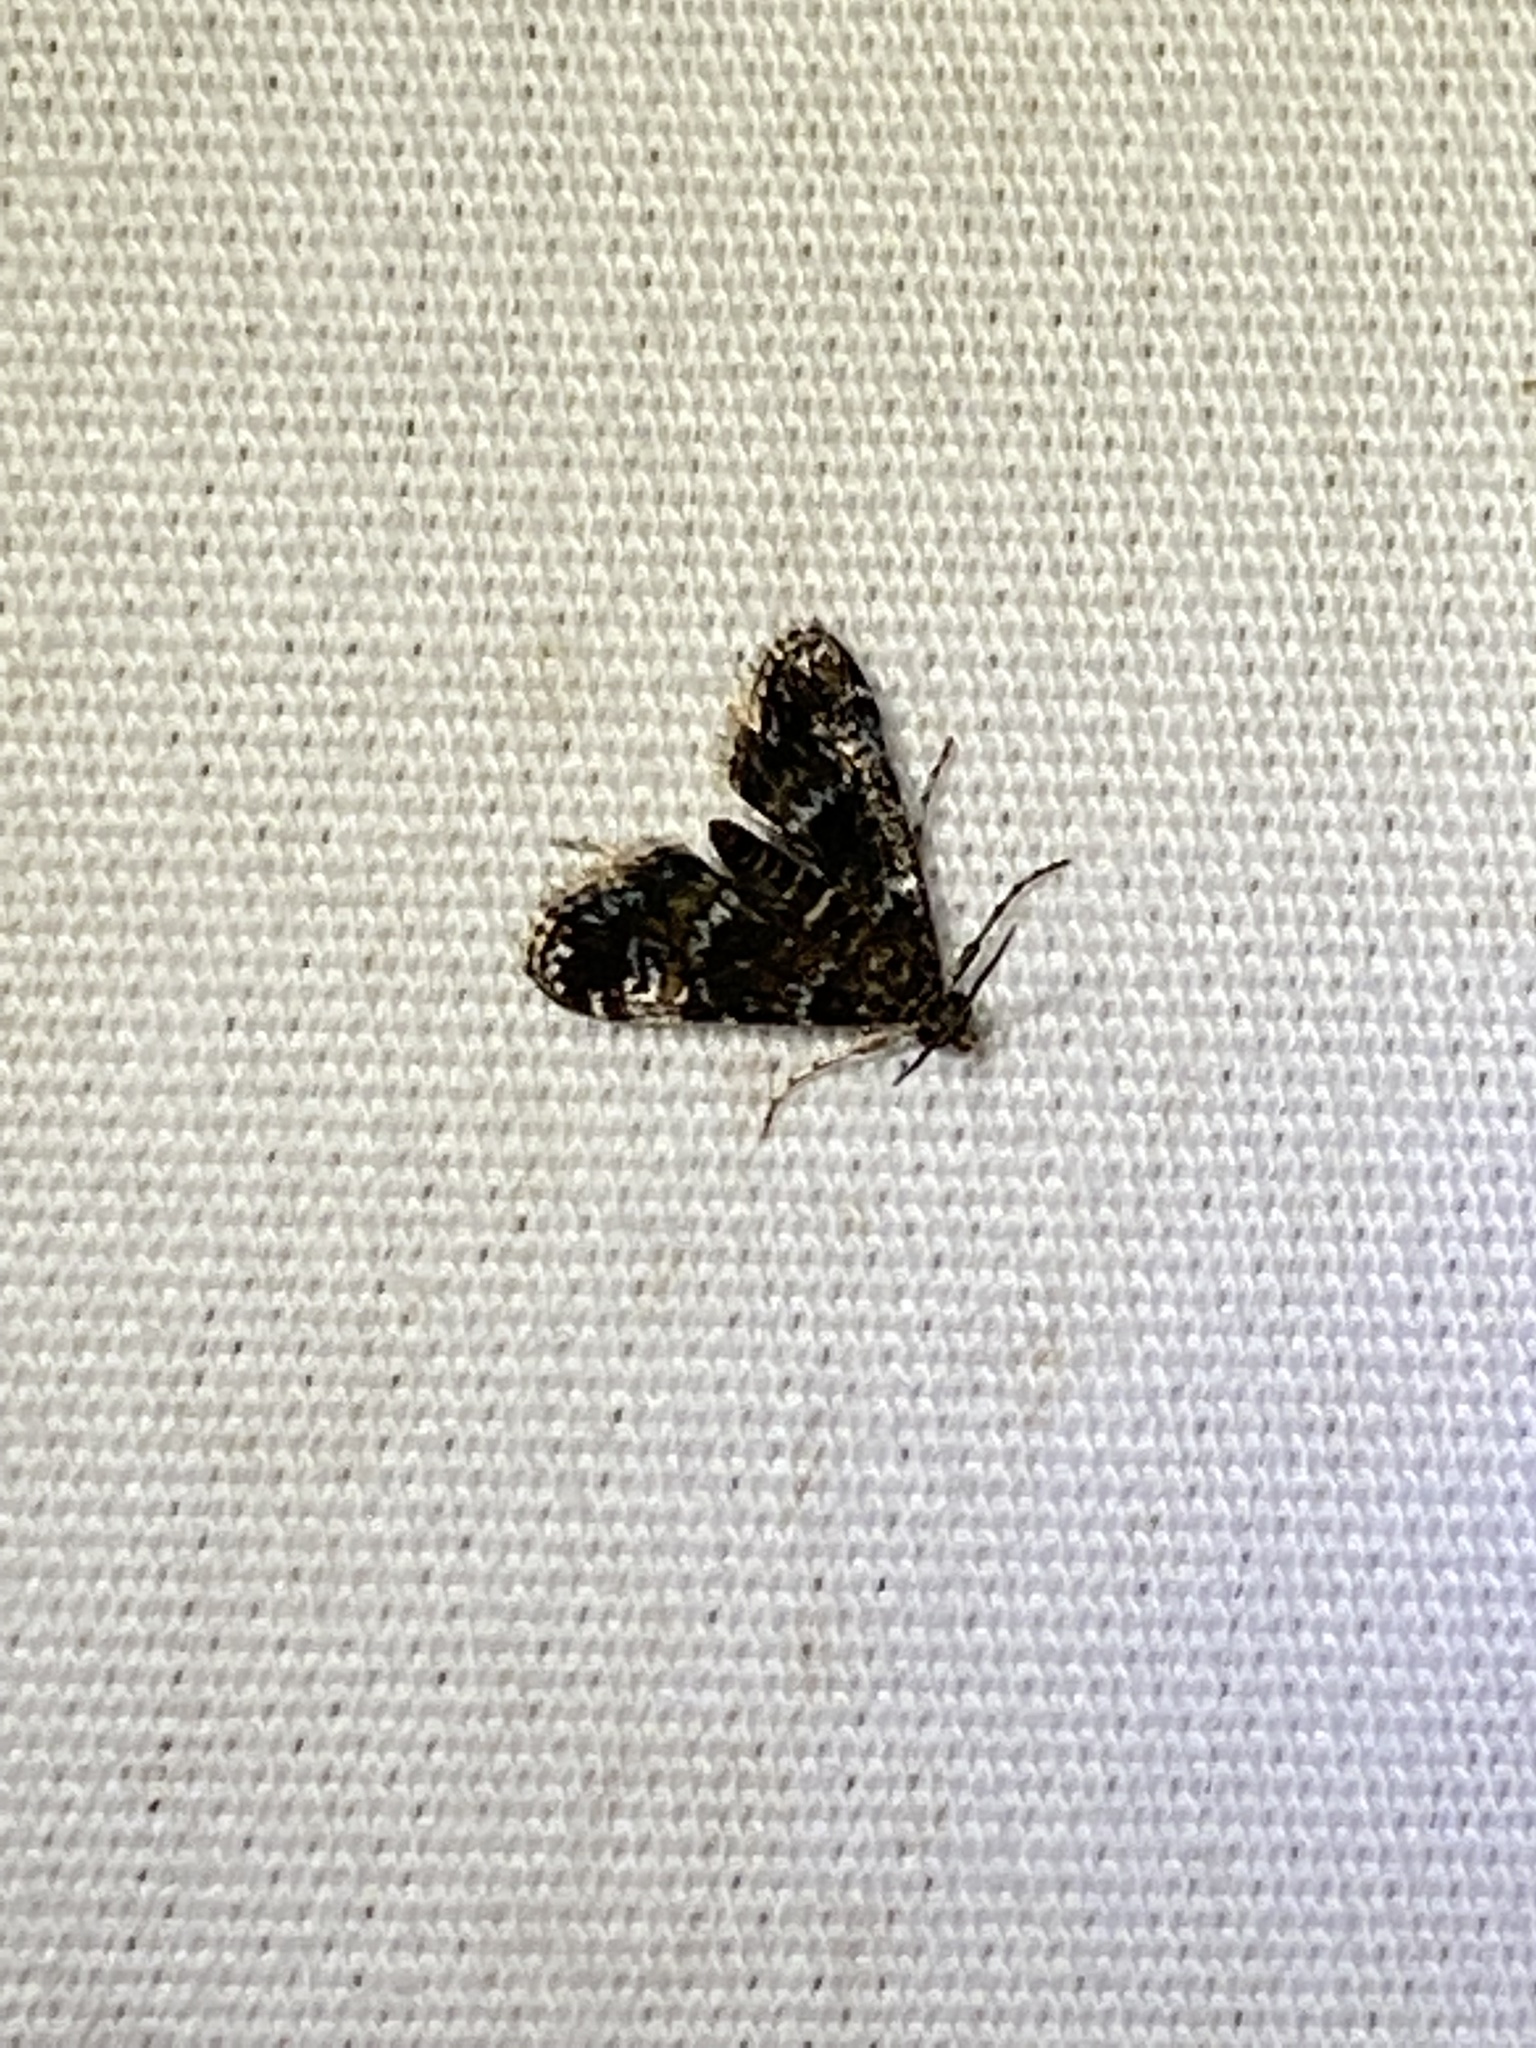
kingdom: Animalia
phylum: Arthropoda
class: Insecta
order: Lepidoptera
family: Crambidae
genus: Elophila
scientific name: Elophila obliteralis
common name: Waterlily leafcutter moth
